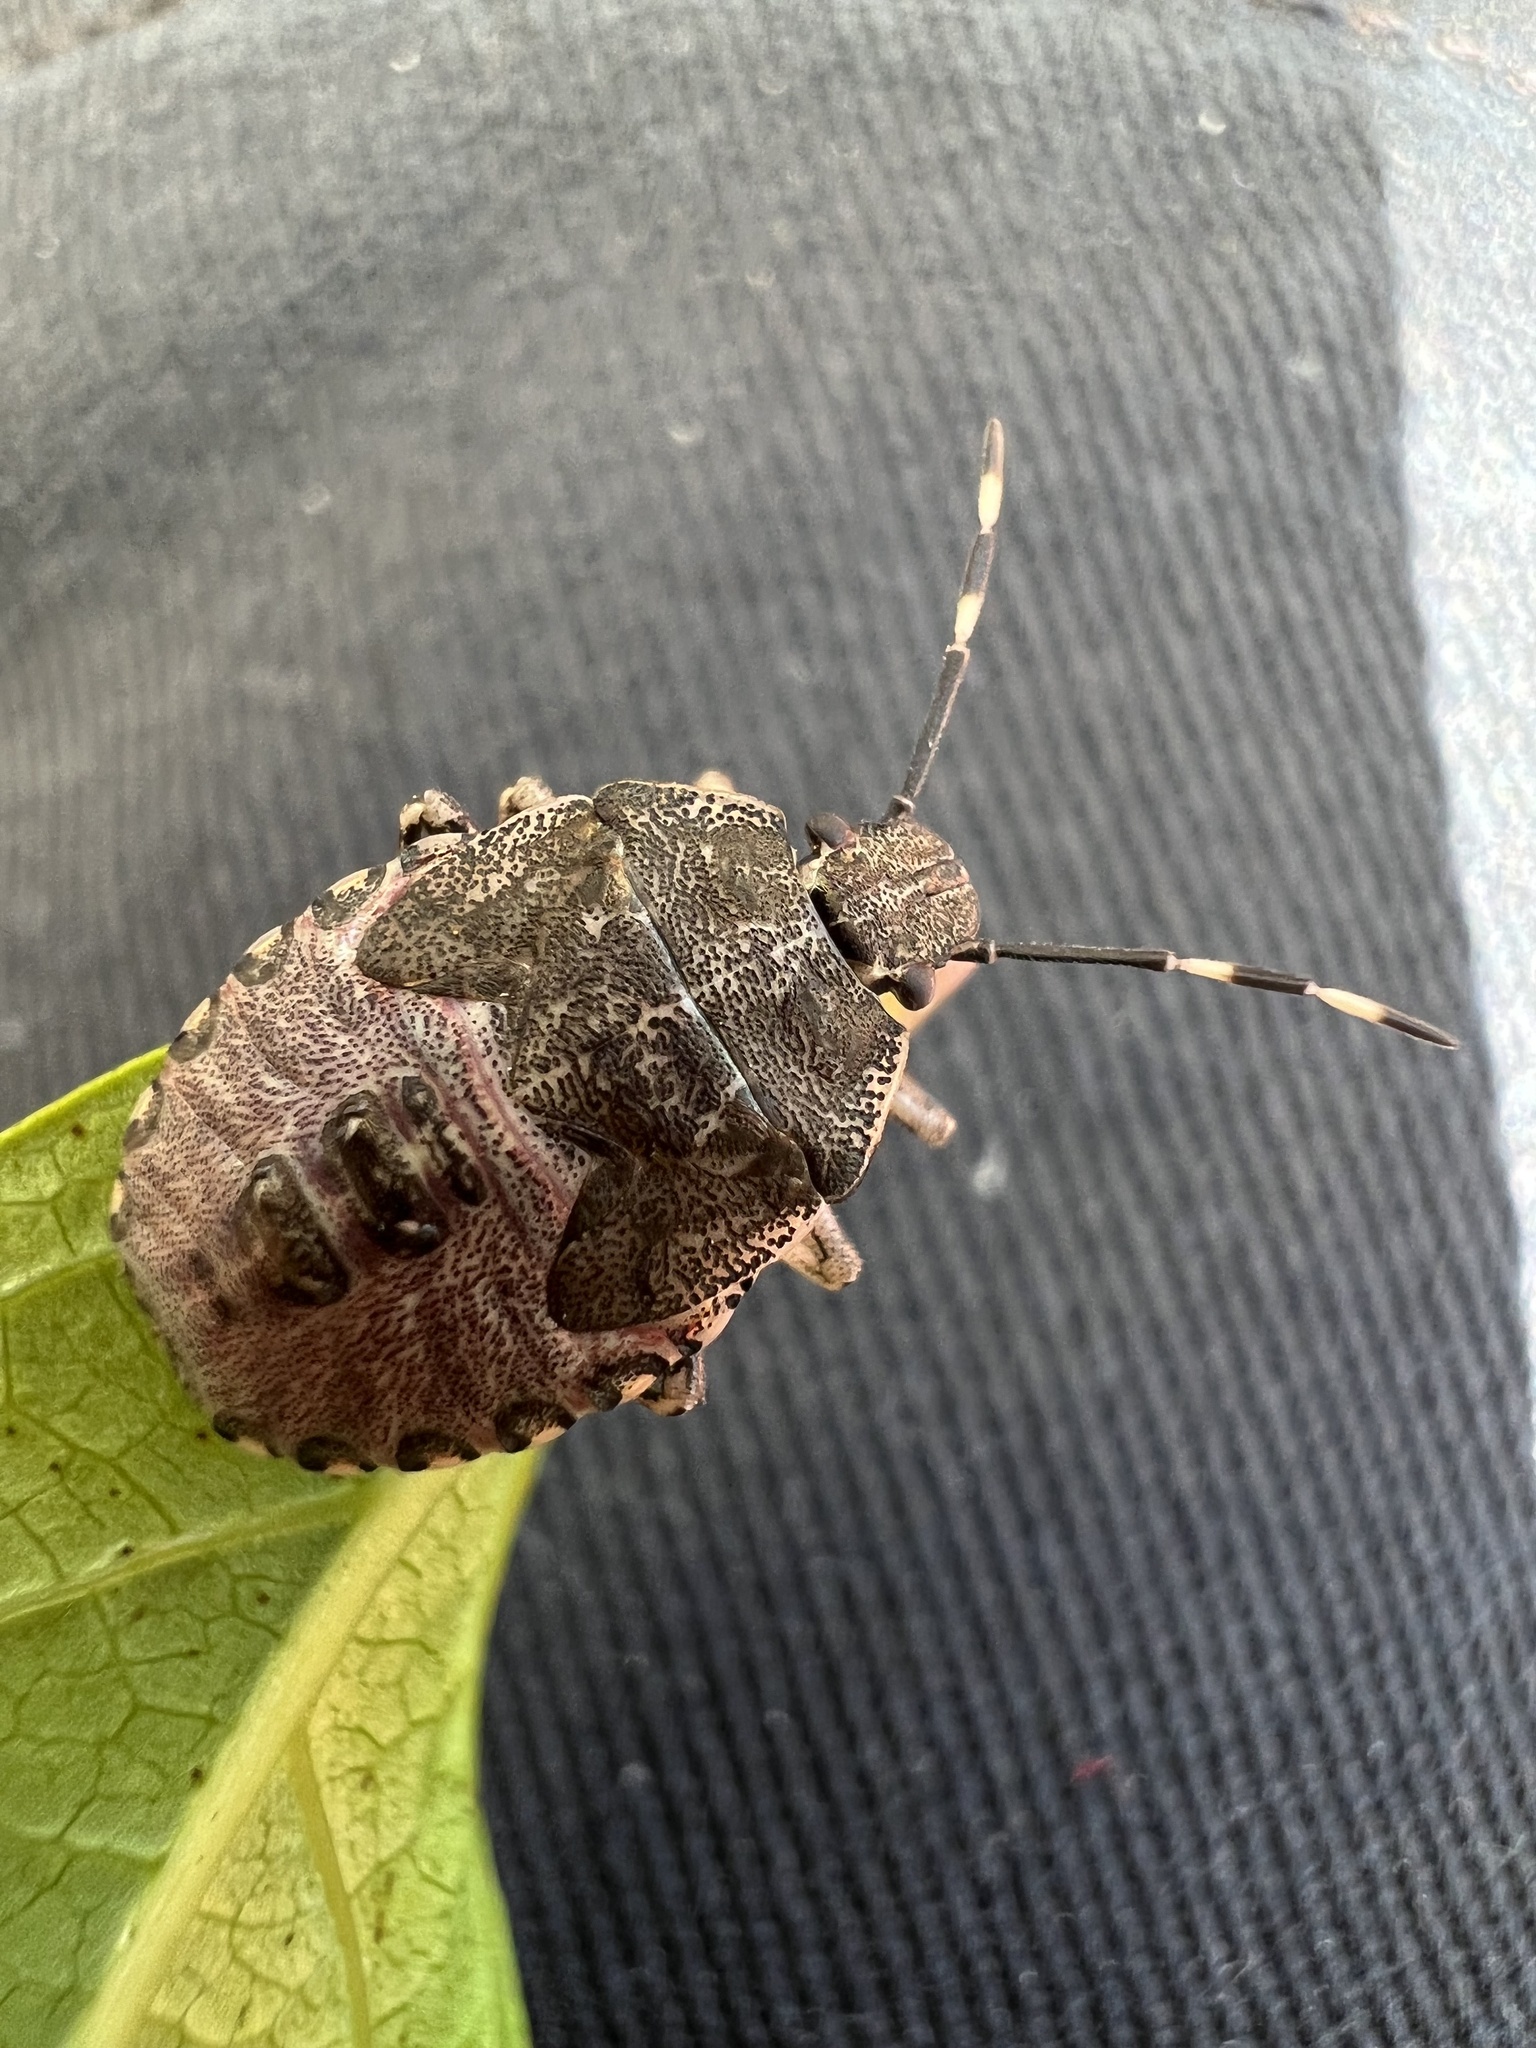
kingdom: Animalia
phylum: Arthropoda
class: Insecta
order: Hemiptera
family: Pentatomidae
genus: Rhaphigaster
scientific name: Rhaphigaster nebulosa
